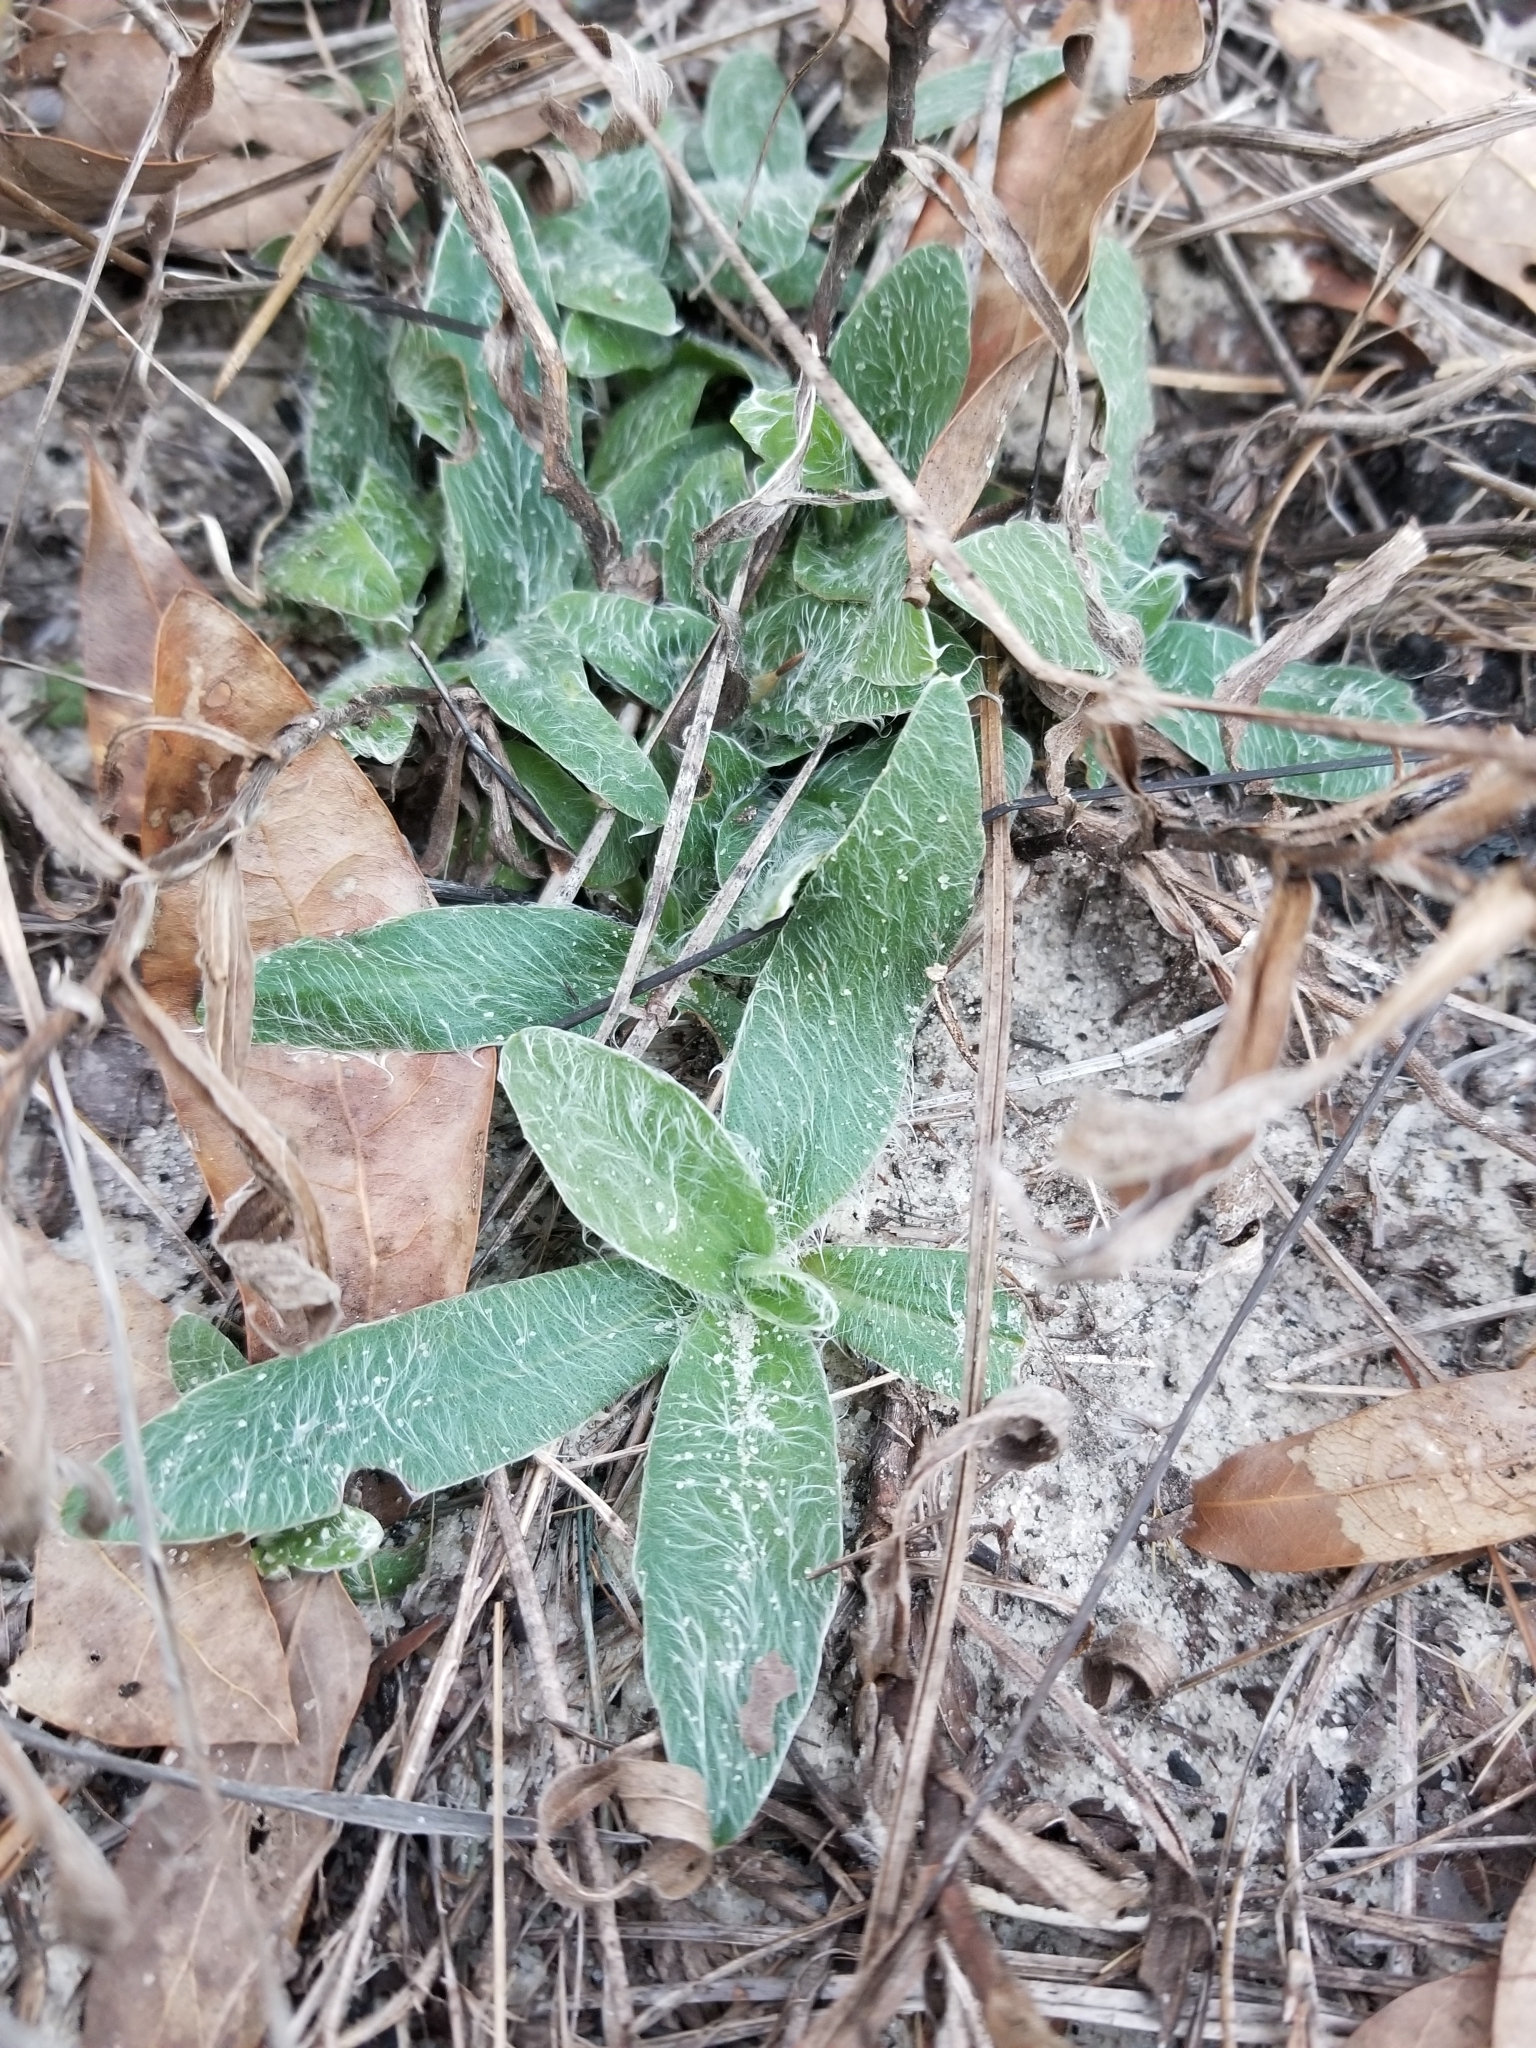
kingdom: Plantae
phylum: Tracheophyta
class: Magnoliopsida
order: Asterales
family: Asteraceae
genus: Pityopsis
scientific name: Pityopsis flexuosa
